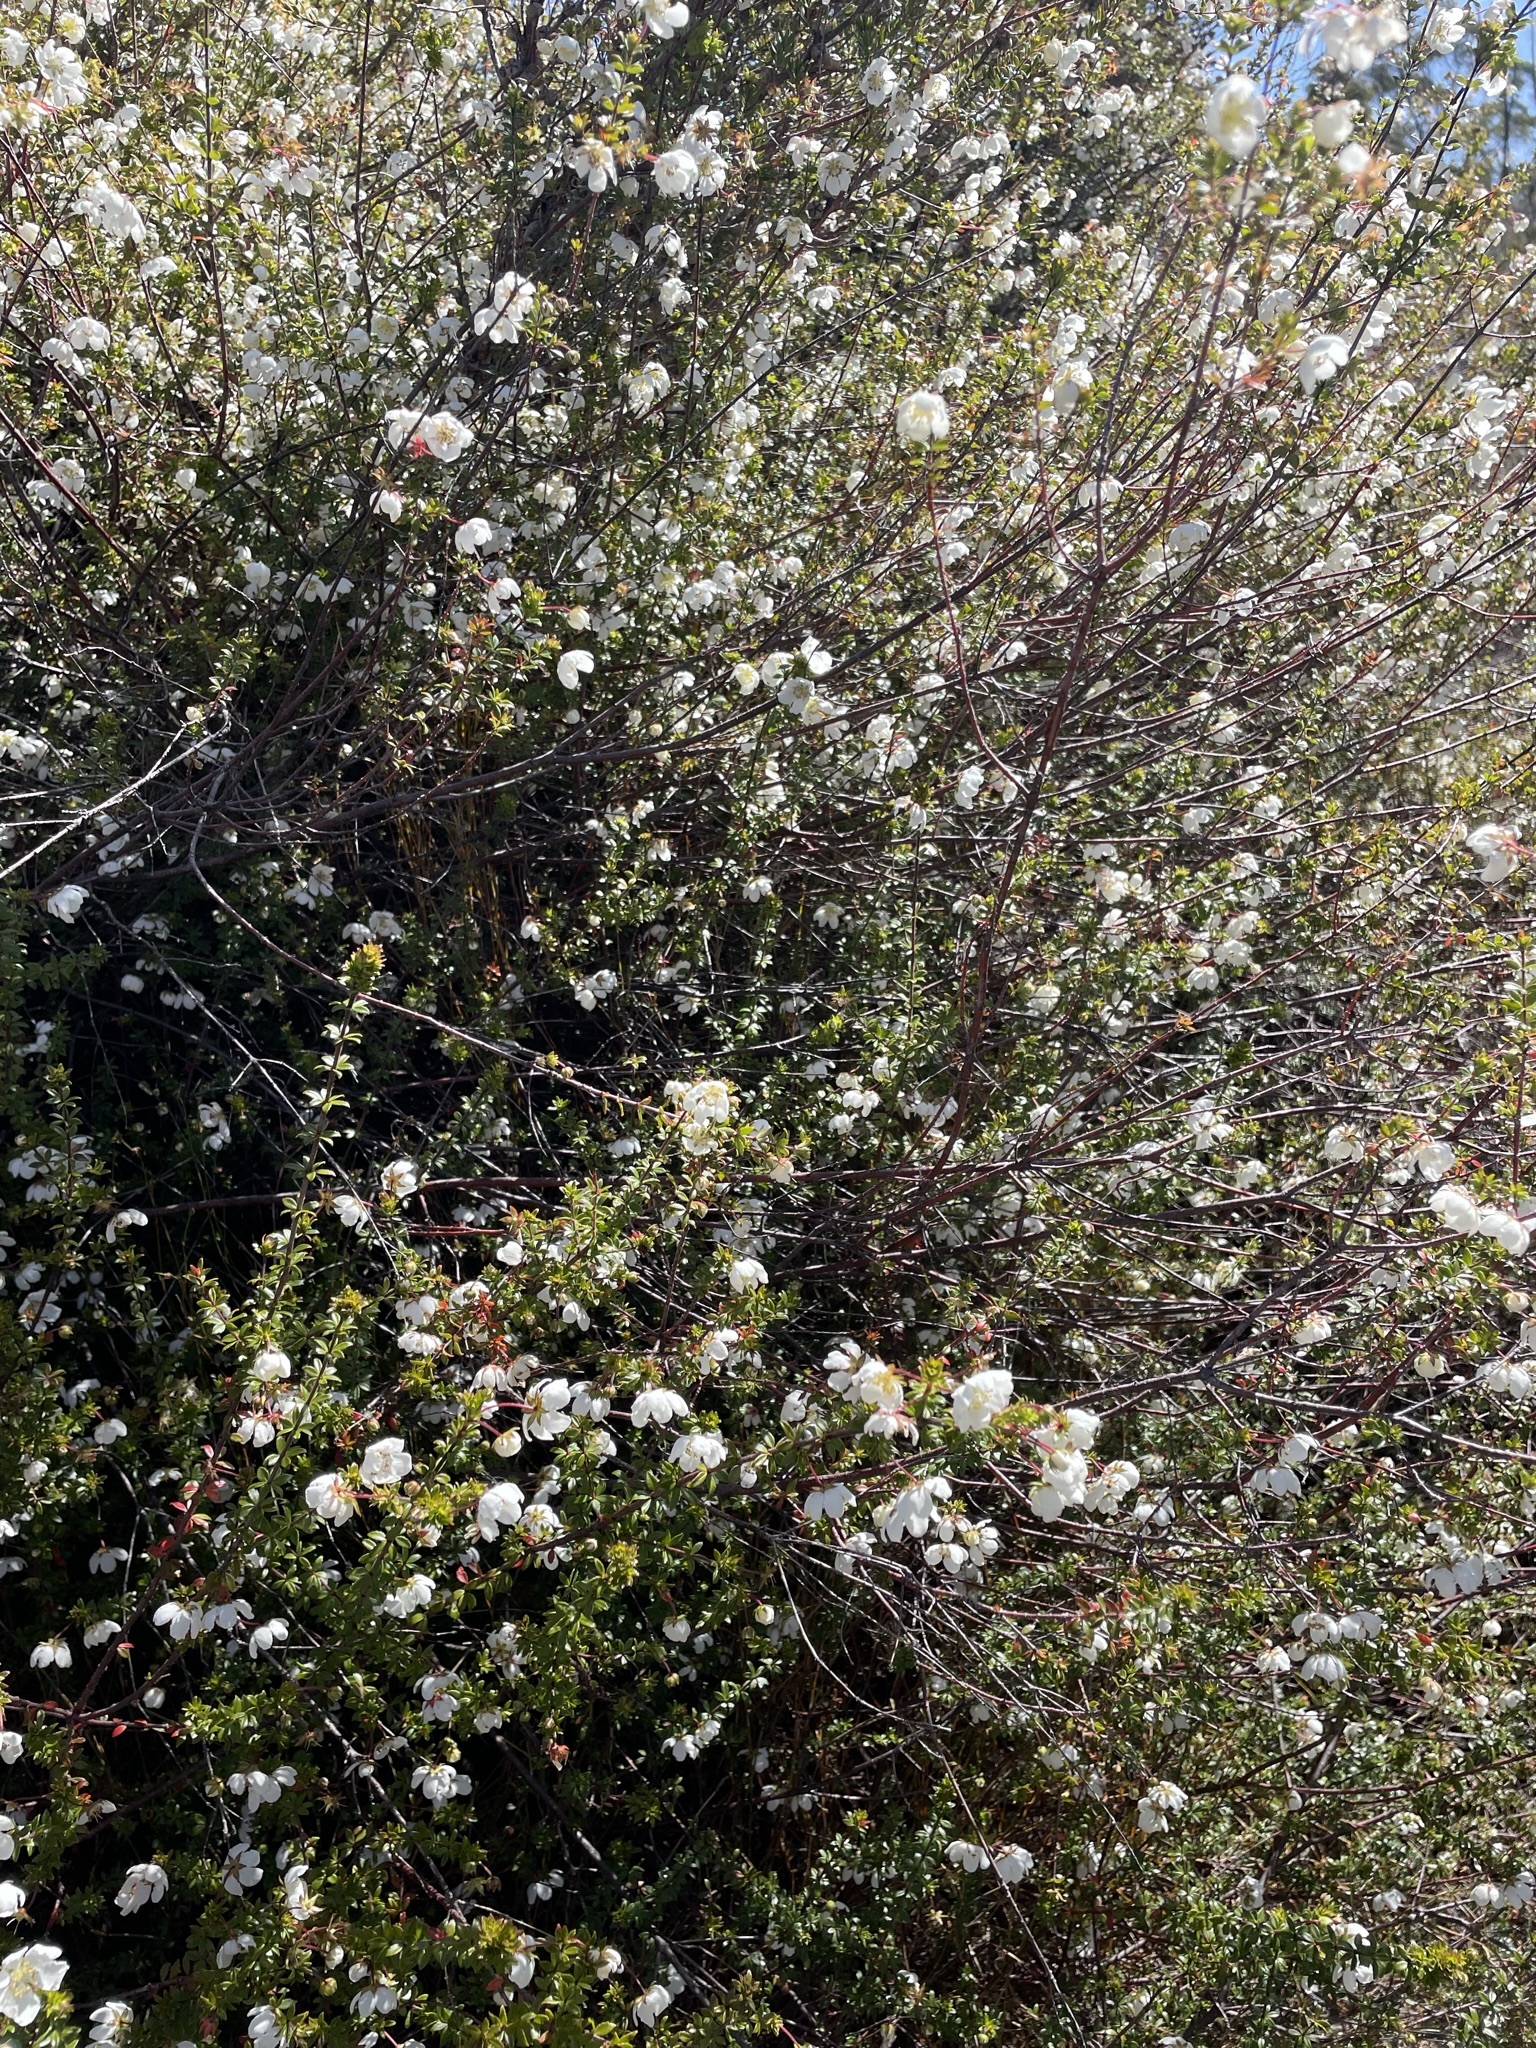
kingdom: Plantae
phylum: Tracheophyta
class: Magnoliopsida
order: Oxalidales
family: Cunoniaceae
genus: Bauera
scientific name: Bauera rubioides
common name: River-rose
